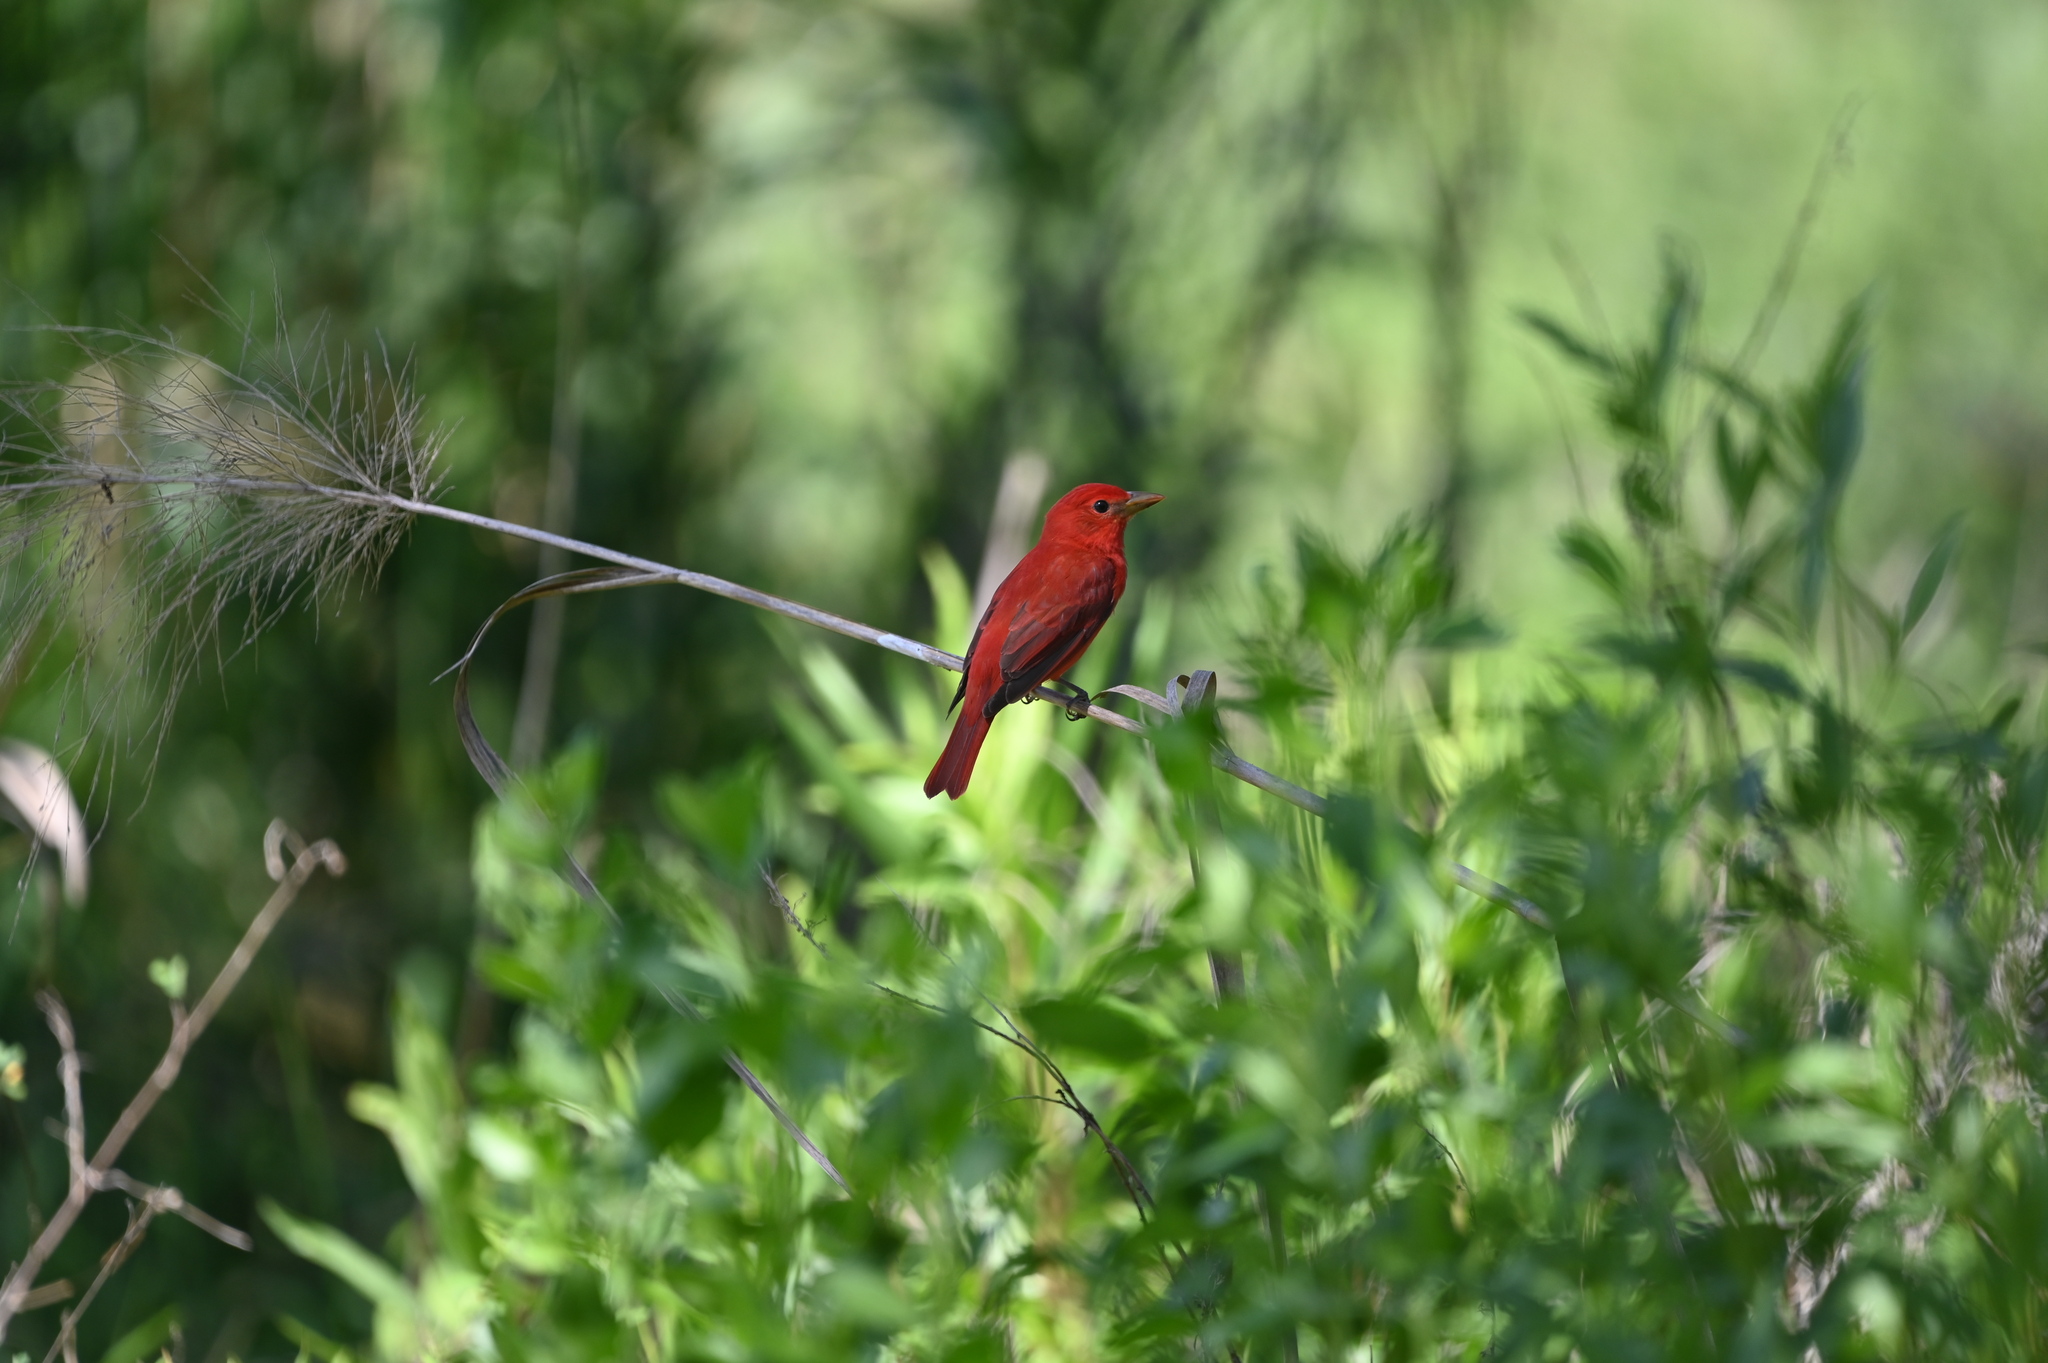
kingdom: Animalia
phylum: Chordata
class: Aves
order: Passeriformes
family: Cardinalidae
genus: Piranga
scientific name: Piranga rubra
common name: Summer tanager
